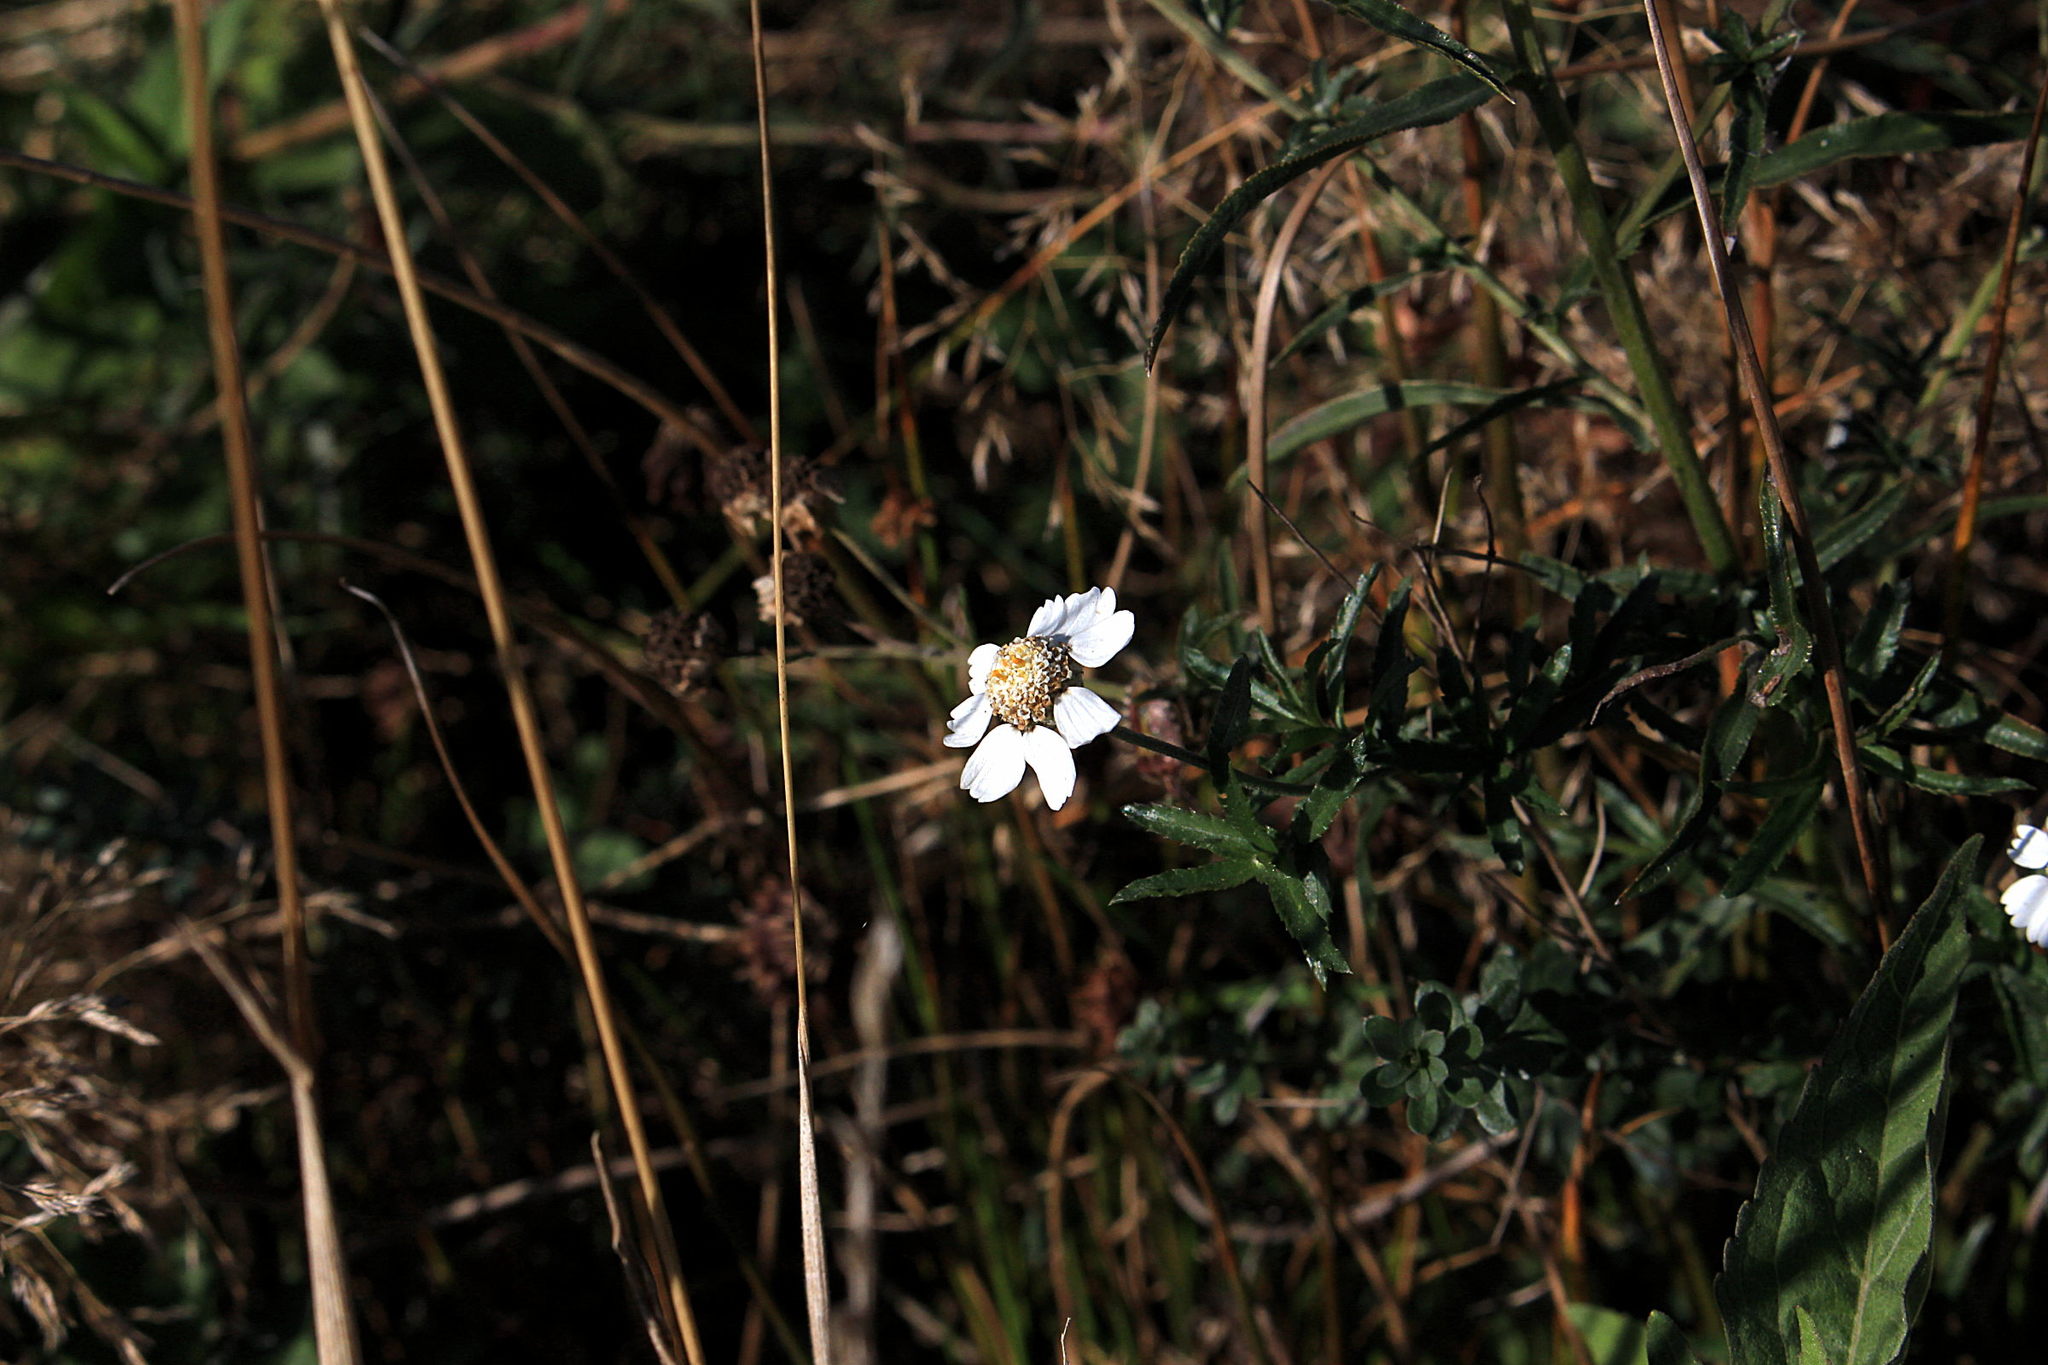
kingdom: Plantae
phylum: Tracheophyta
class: Magnoliopsida
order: Asterales
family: Asteraceae
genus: Achillea
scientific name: Achillea ptarmica
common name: Sneezeweed
